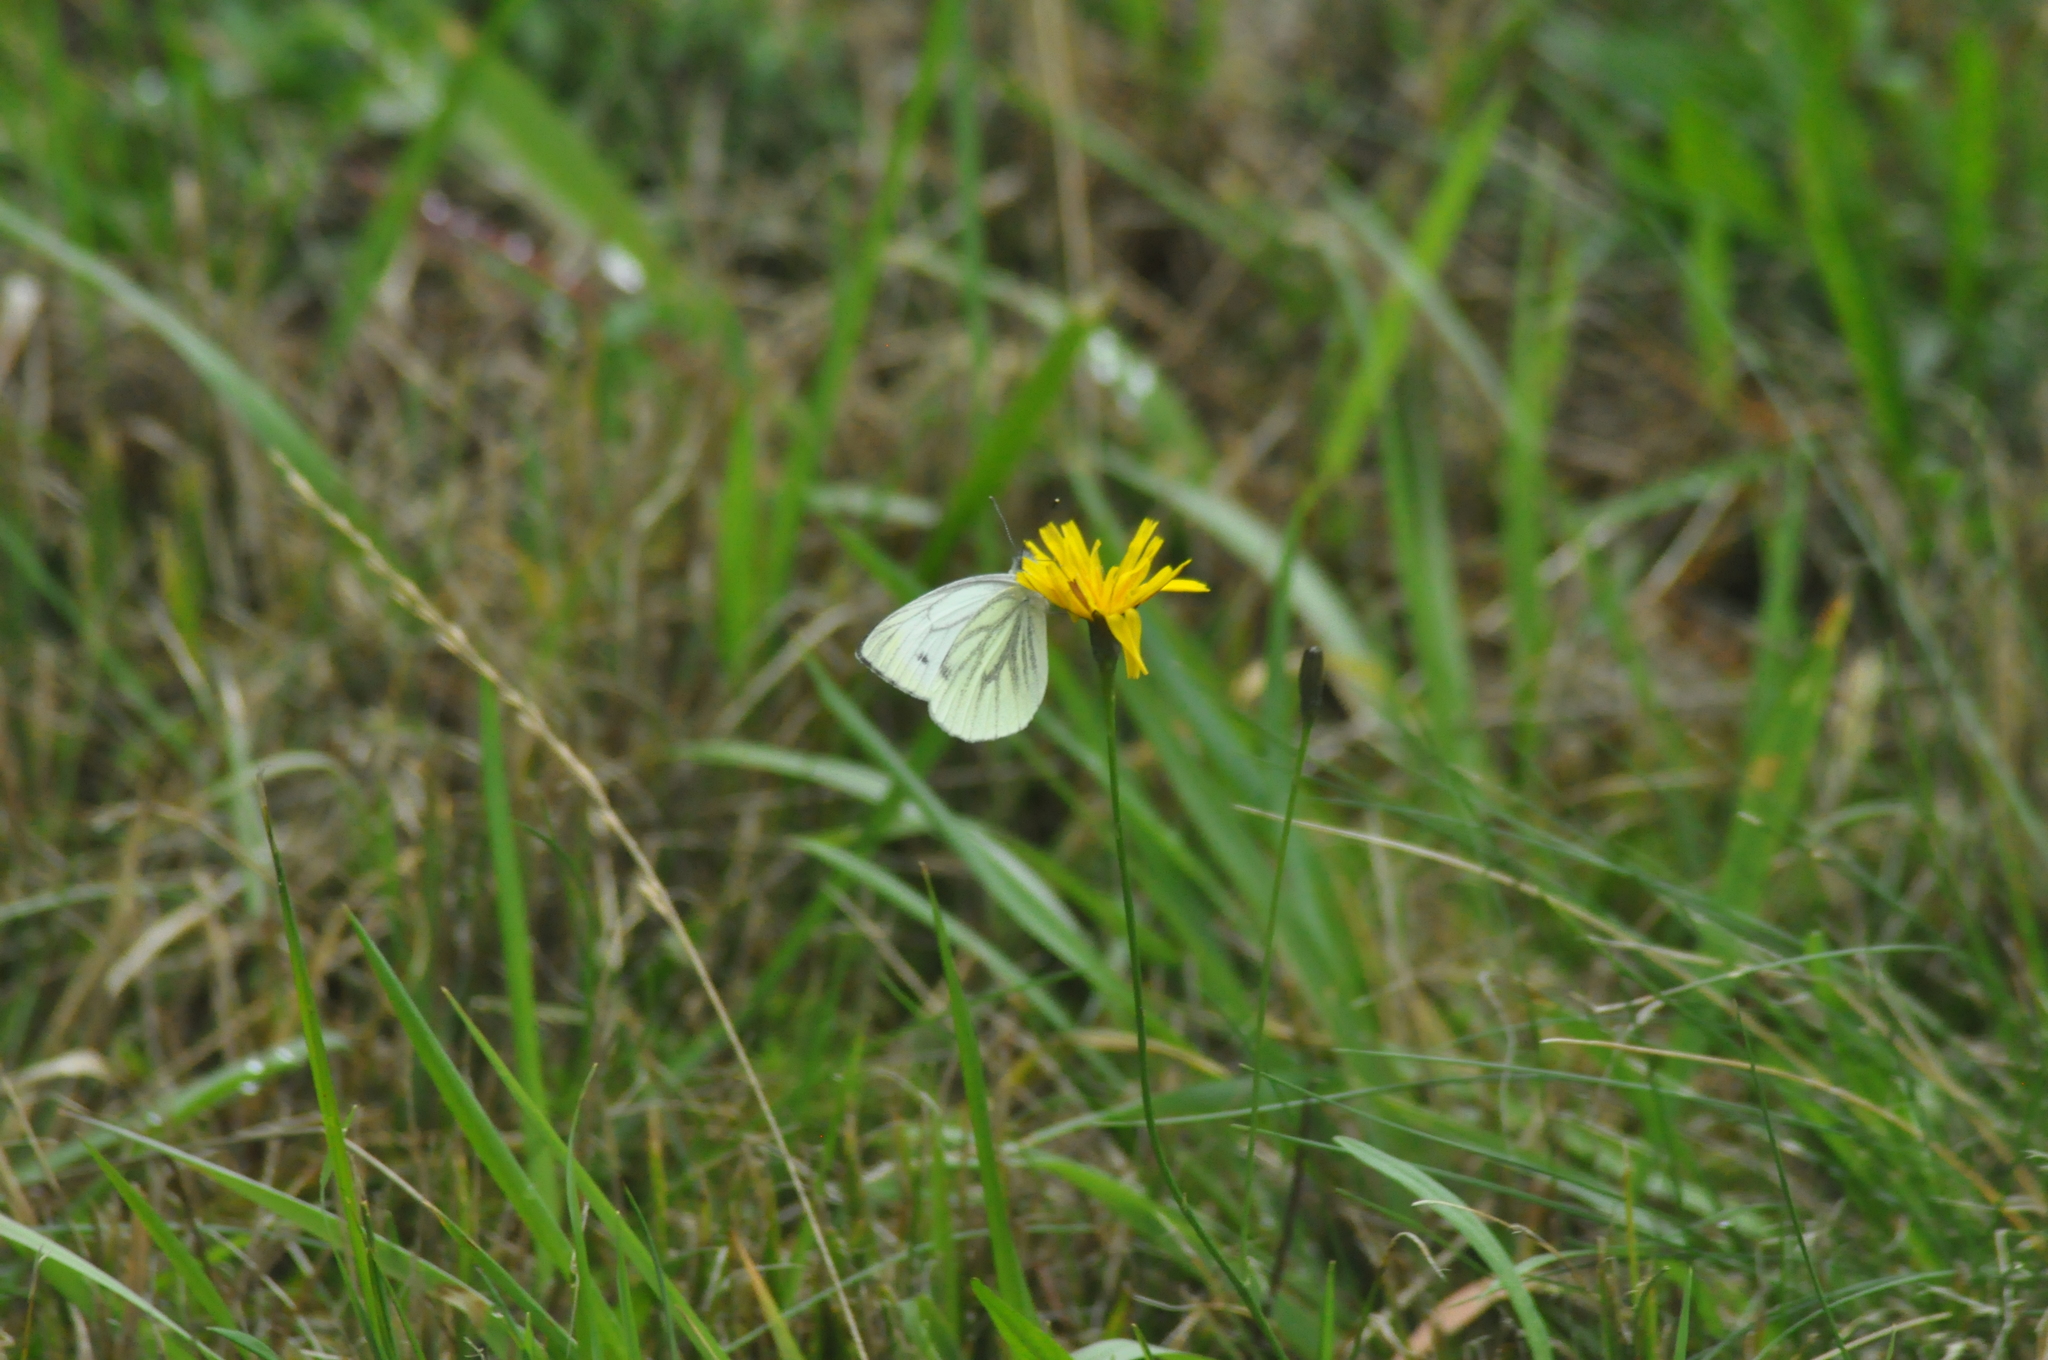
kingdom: Animalia
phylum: Arthropoda
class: Insecta
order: Lepidoptera
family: Pieridae
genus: Pieris
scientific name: Pieris napi
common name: Green-veined white
